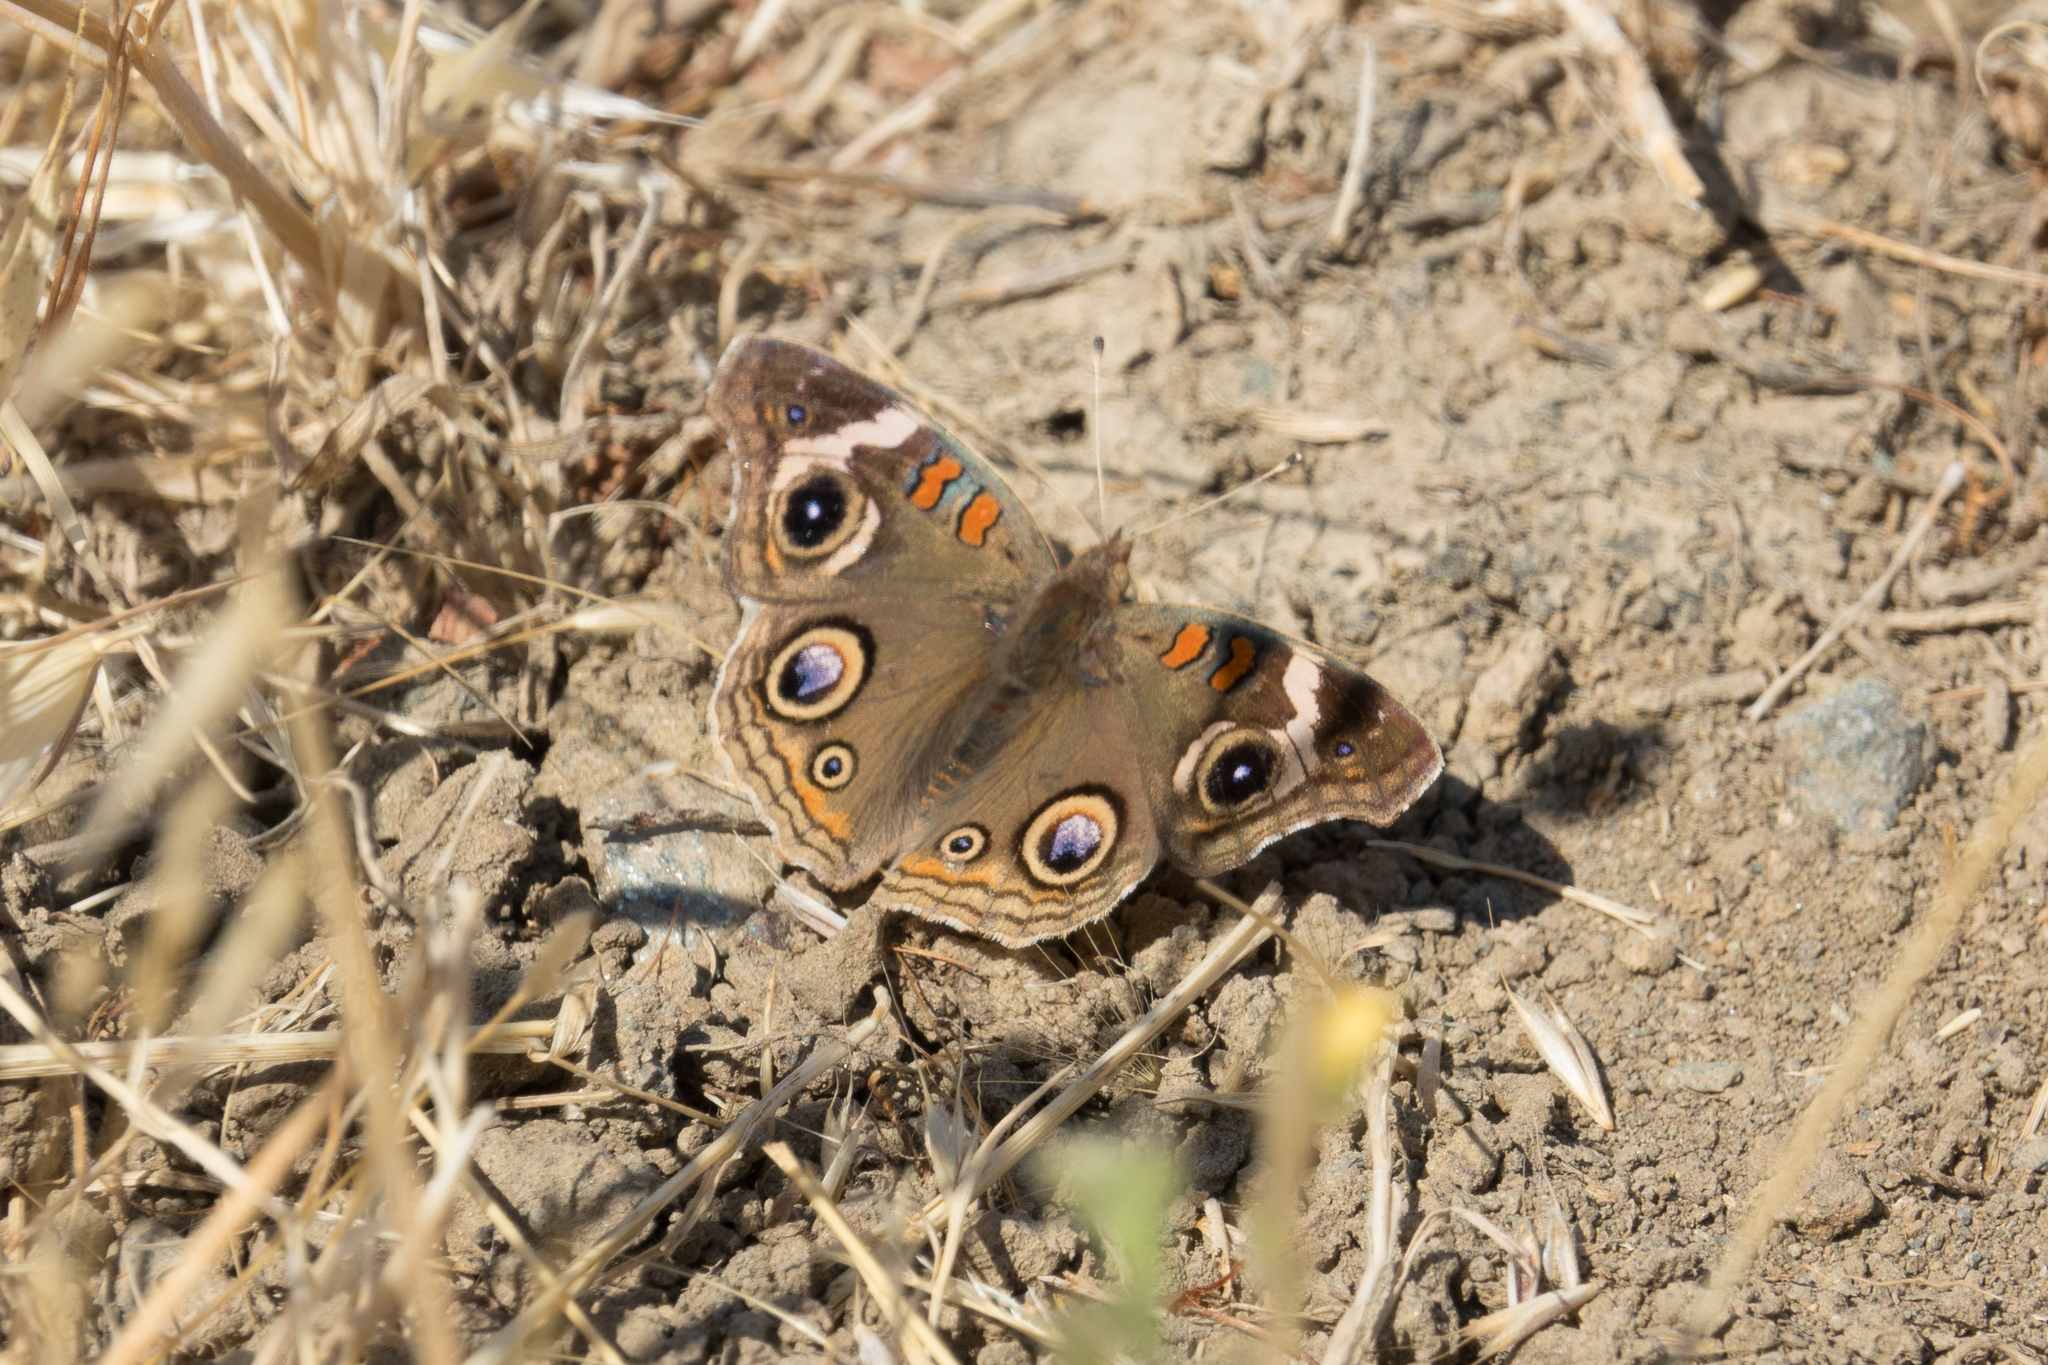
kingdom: Animalia
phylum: Arthropoda
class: Insecta
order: Lepidoptera
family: Nymphalidae
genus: Junonia
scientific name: Junonia grisea
